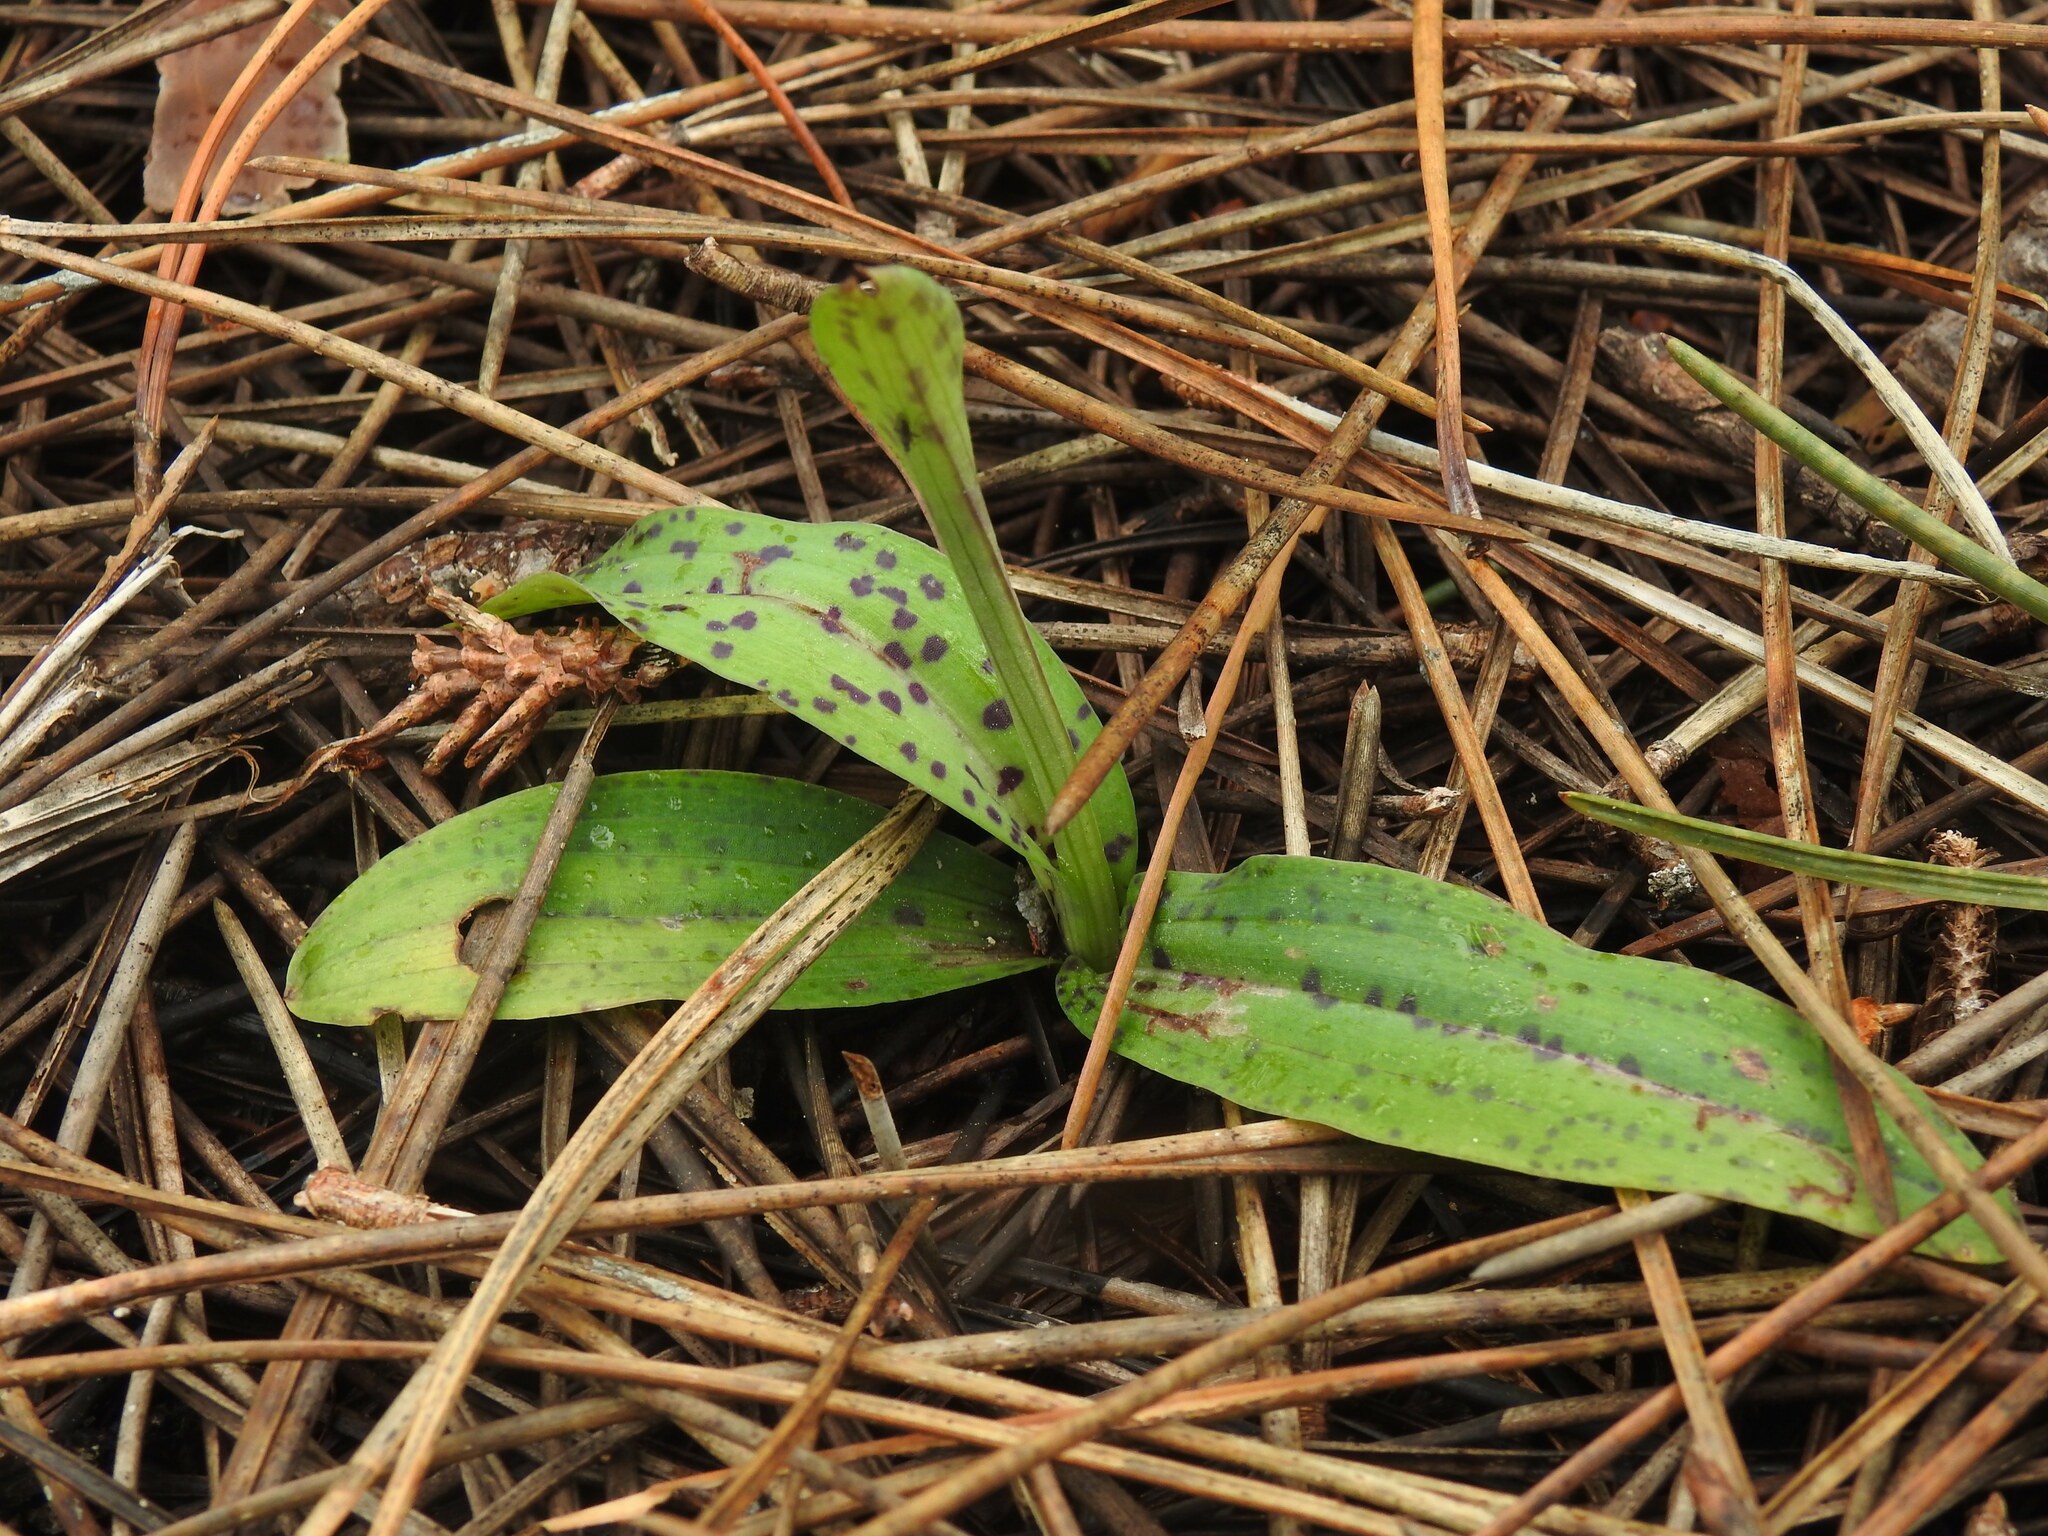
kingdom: Plantae
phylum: Tracheophyta
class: Liliopsida
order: Asparagales
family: Orchidaceae
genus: Neotinea
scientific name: Neotinea maculata
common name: Dense-flowered orchid
